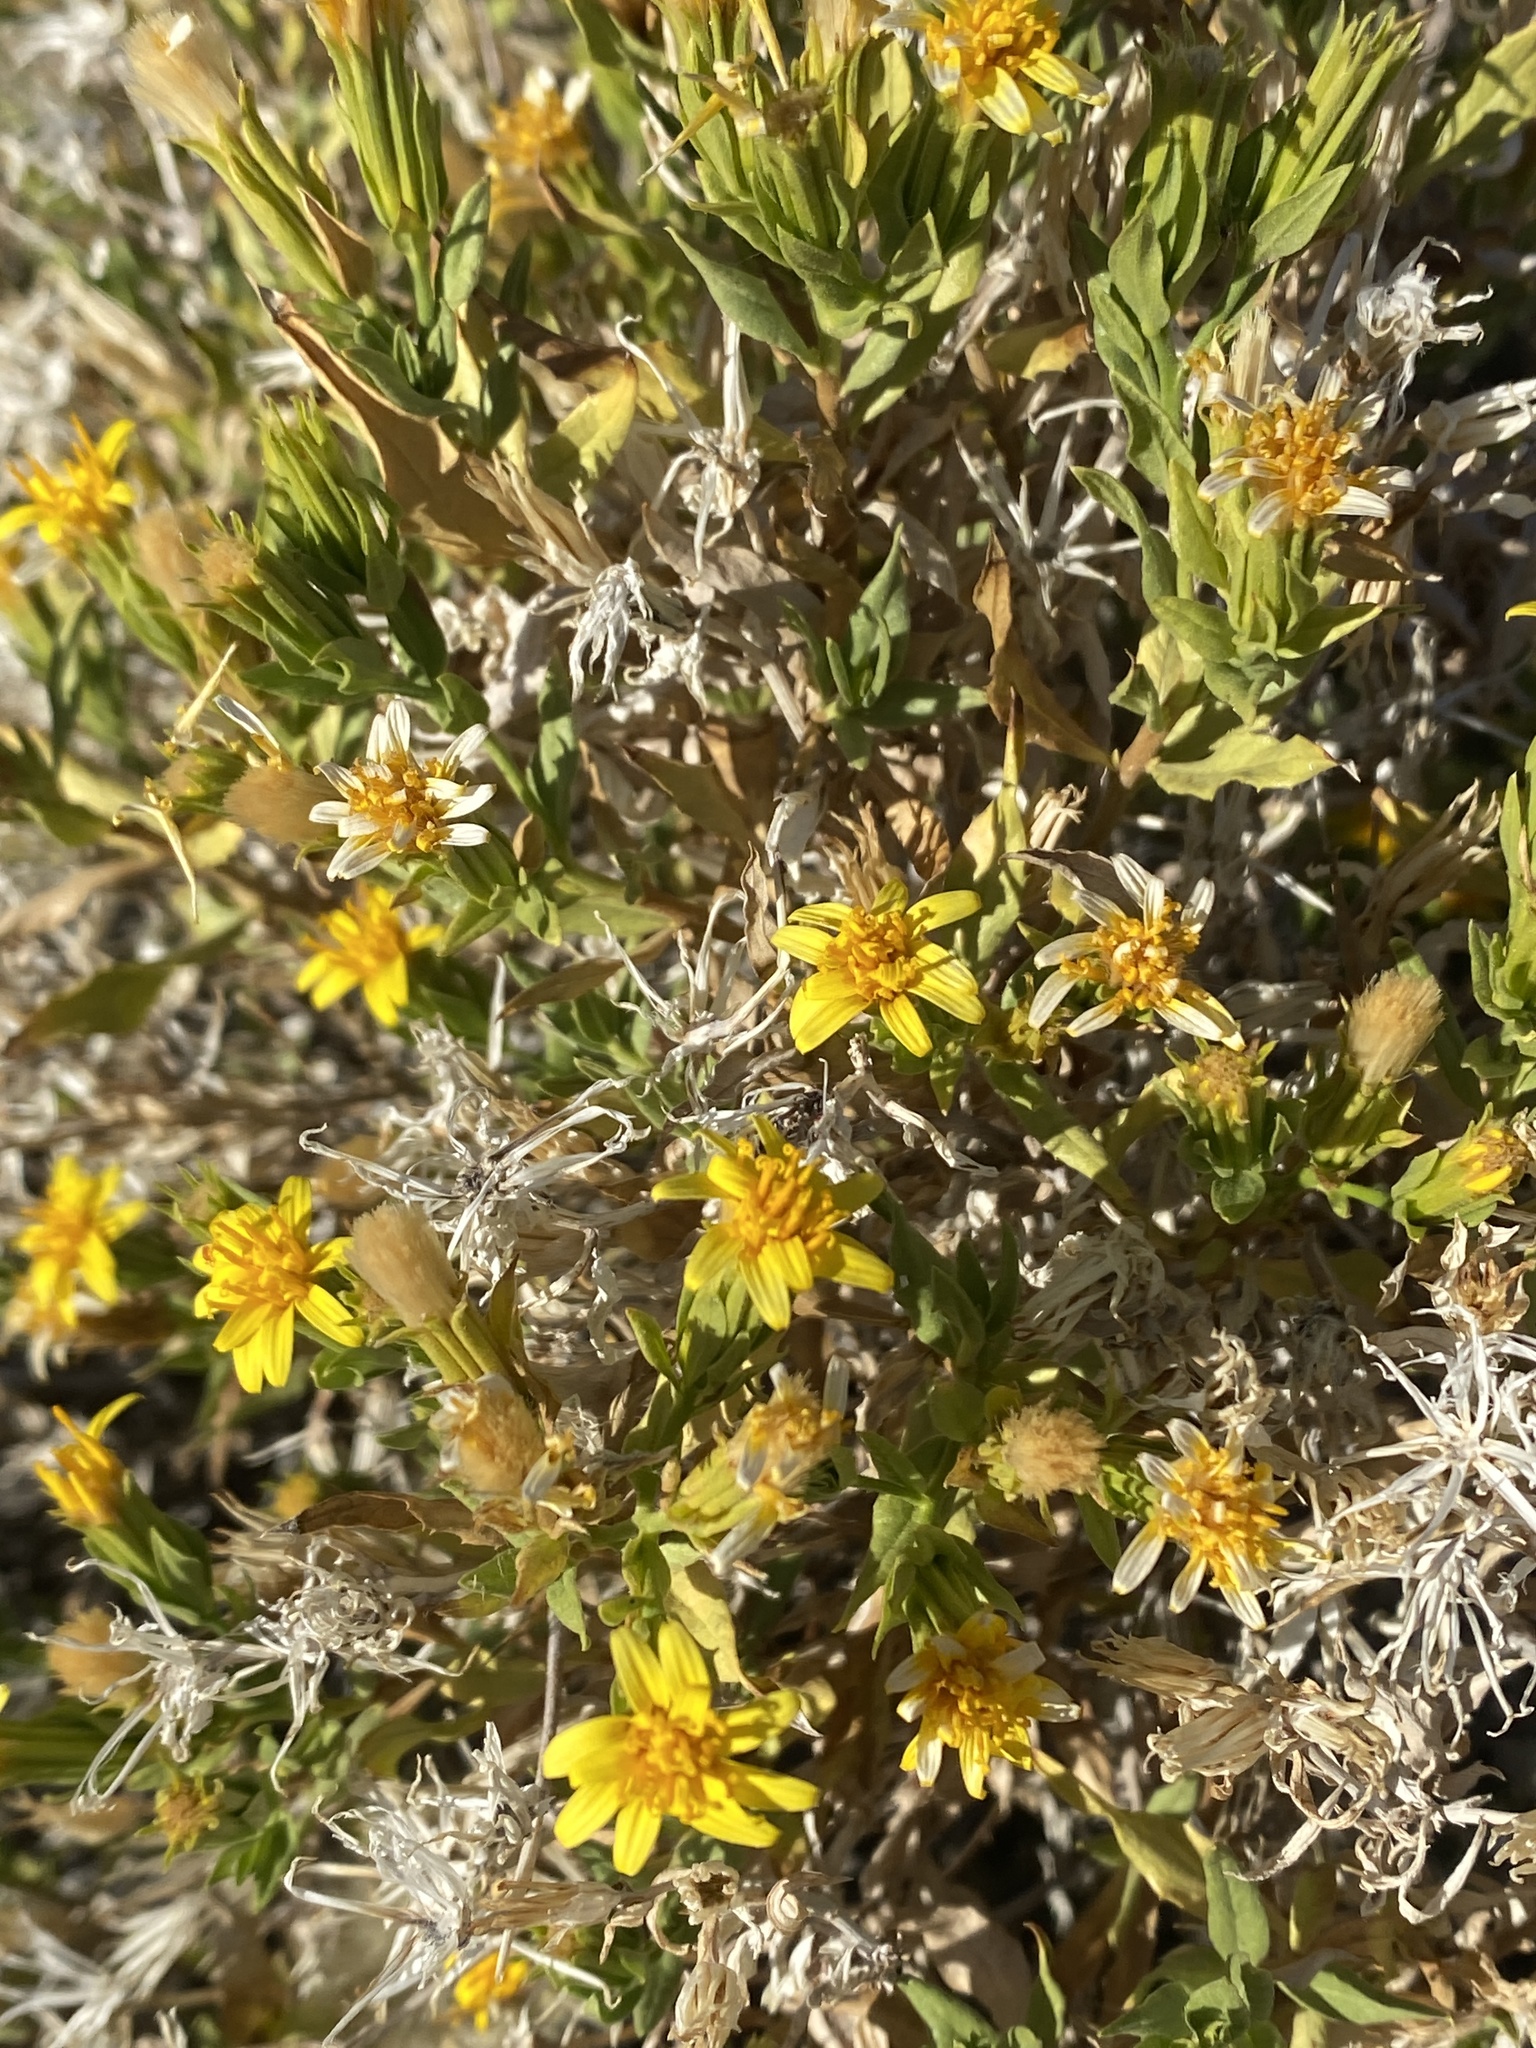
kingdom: Plantae
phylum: Tracheophyta
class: Magnoliopsida
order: Asterales
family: Asteraceae
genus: Trixis
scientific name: Trixis californica
